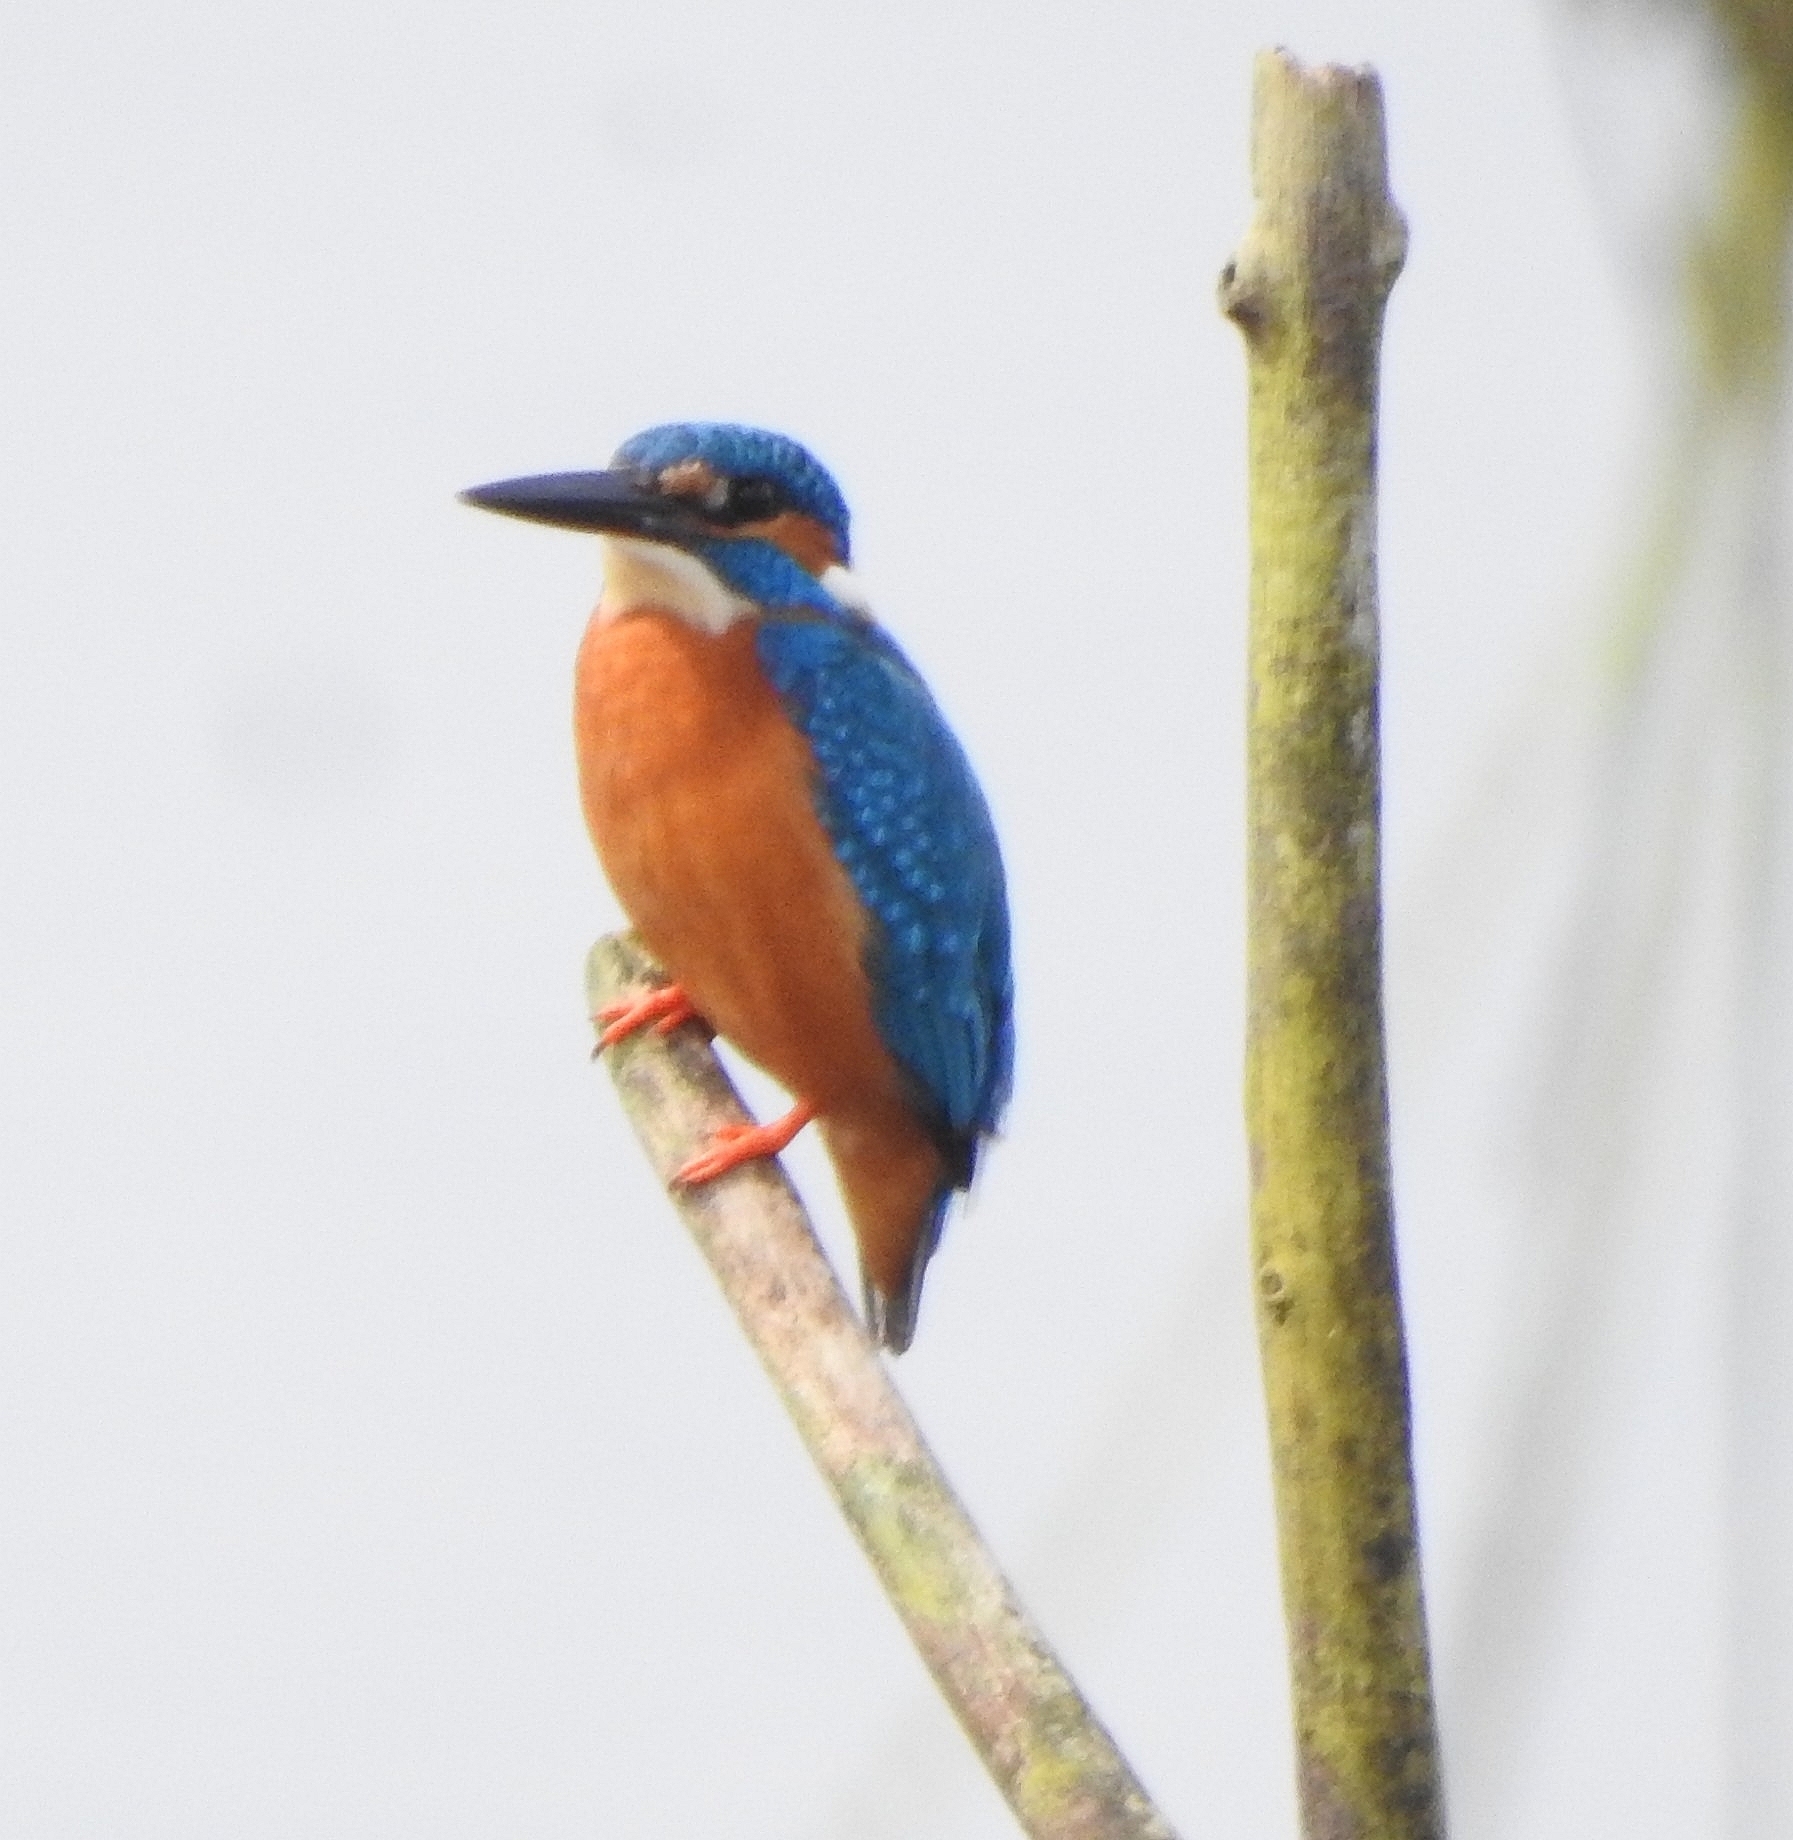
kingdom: Animalia
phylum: Chordata
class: Aves
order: Coraciiformes
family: Alcedinidae
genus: Alcedo
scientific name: Alcedo atthis
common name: Common kingfisher
